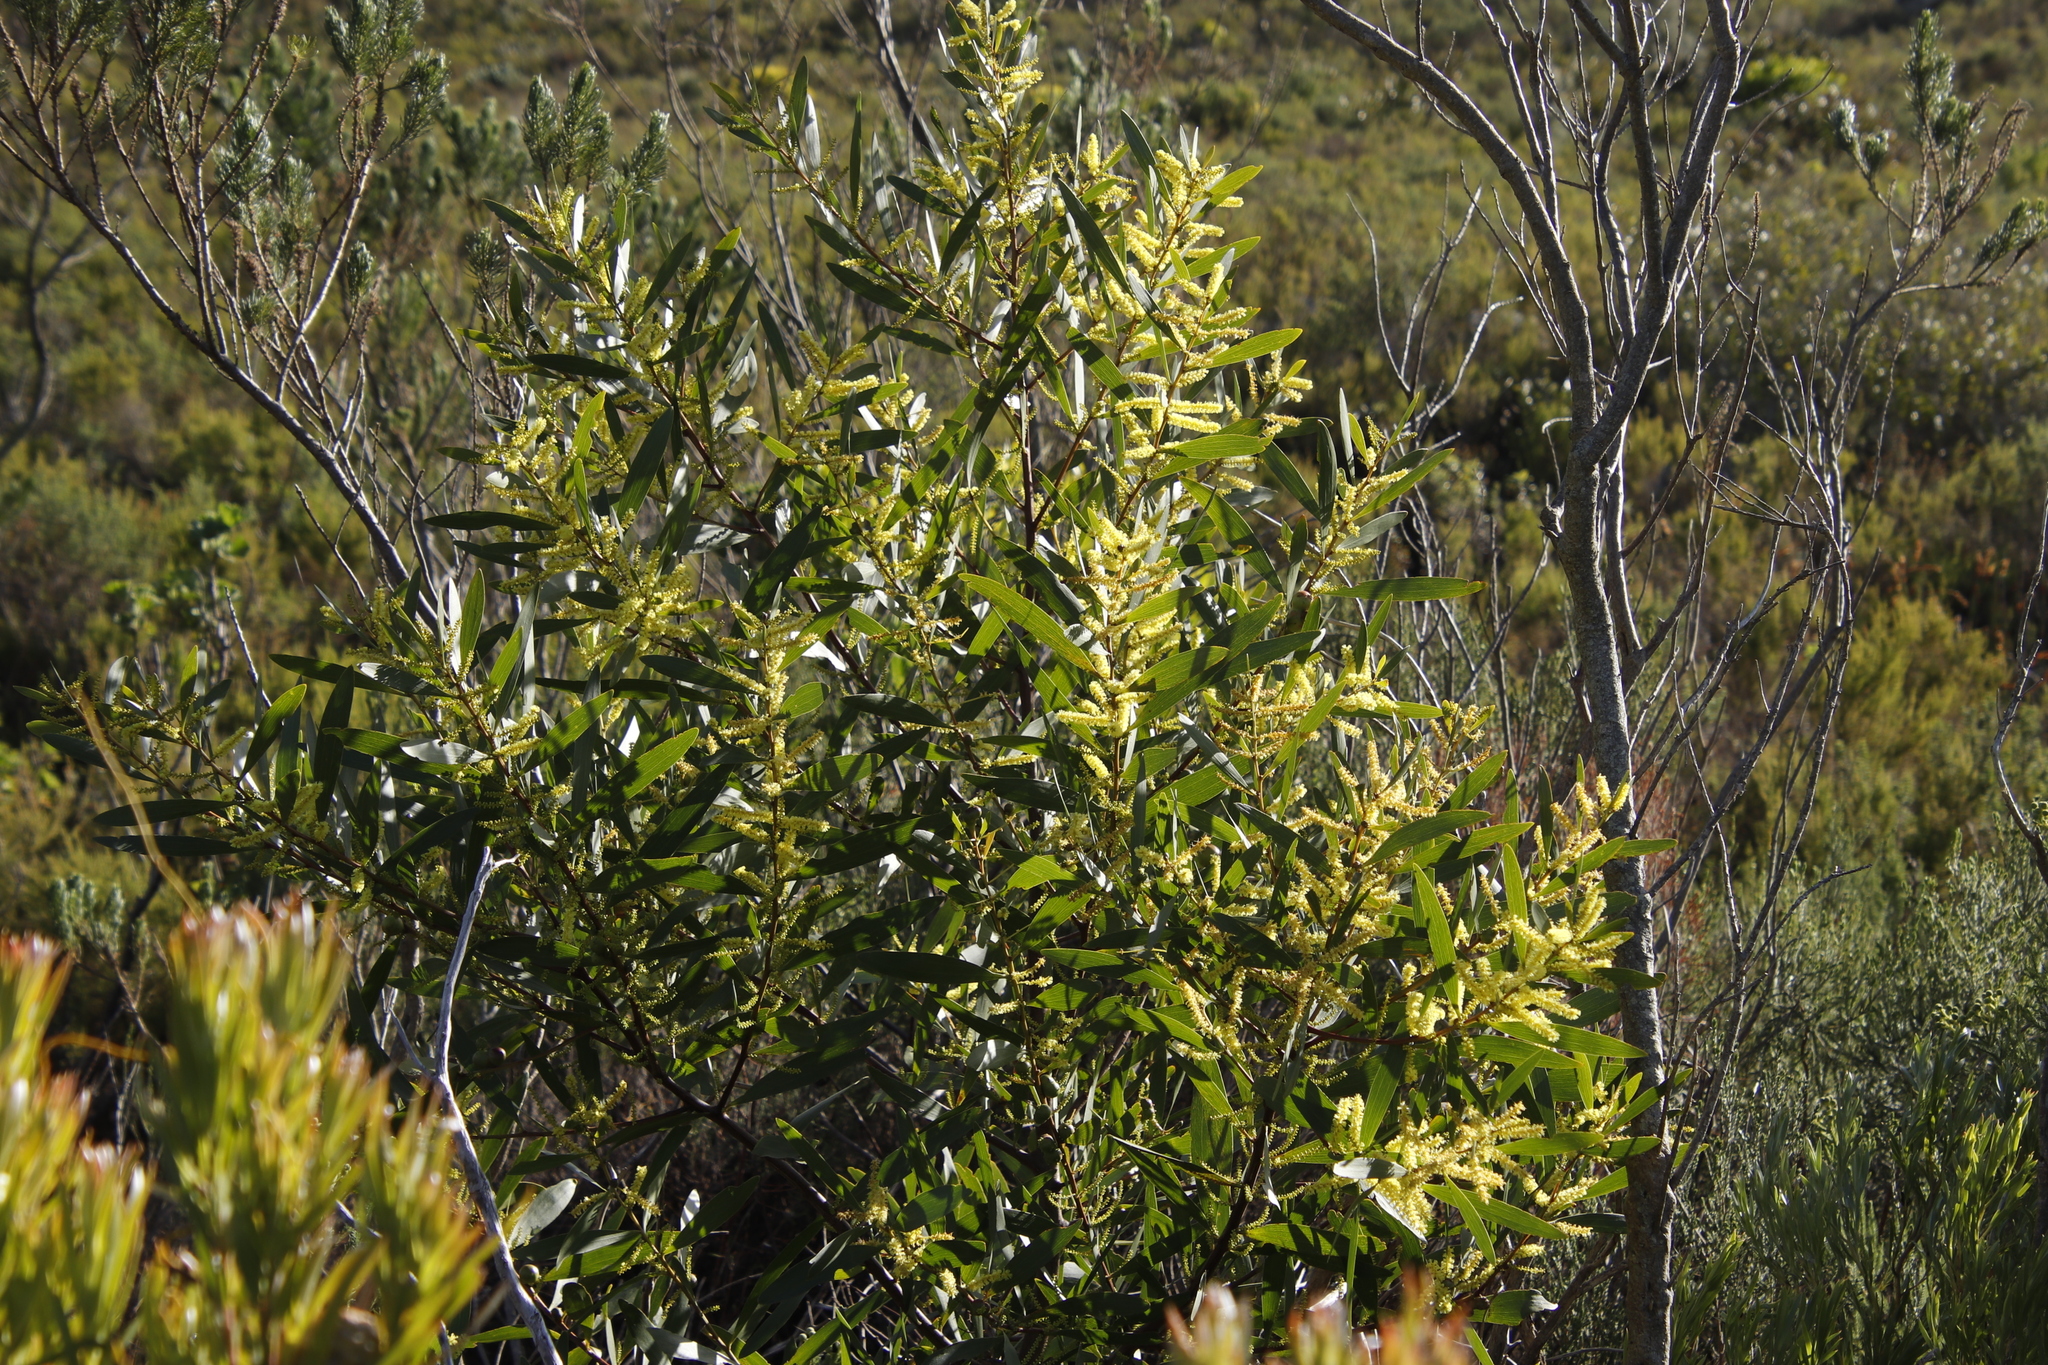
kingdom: Plantae
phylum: Tracheophyta
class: Magnoliopsida
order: Fabales
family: Fabaceae
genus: Acacia
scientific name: Acacia longifolia
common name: Sydney golden wattle
